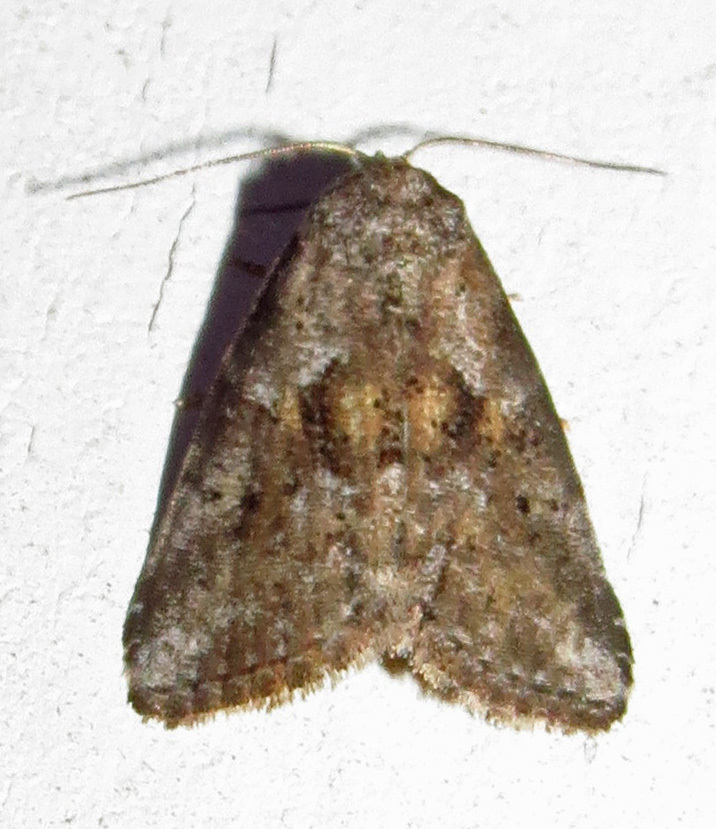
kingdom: Animalia
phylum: Arthropoda
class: Insecta
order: Lepidoptera
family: Erebidae
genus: Hyperstrotia
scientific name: Hyperstrotia nana
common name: White-lined graylet
